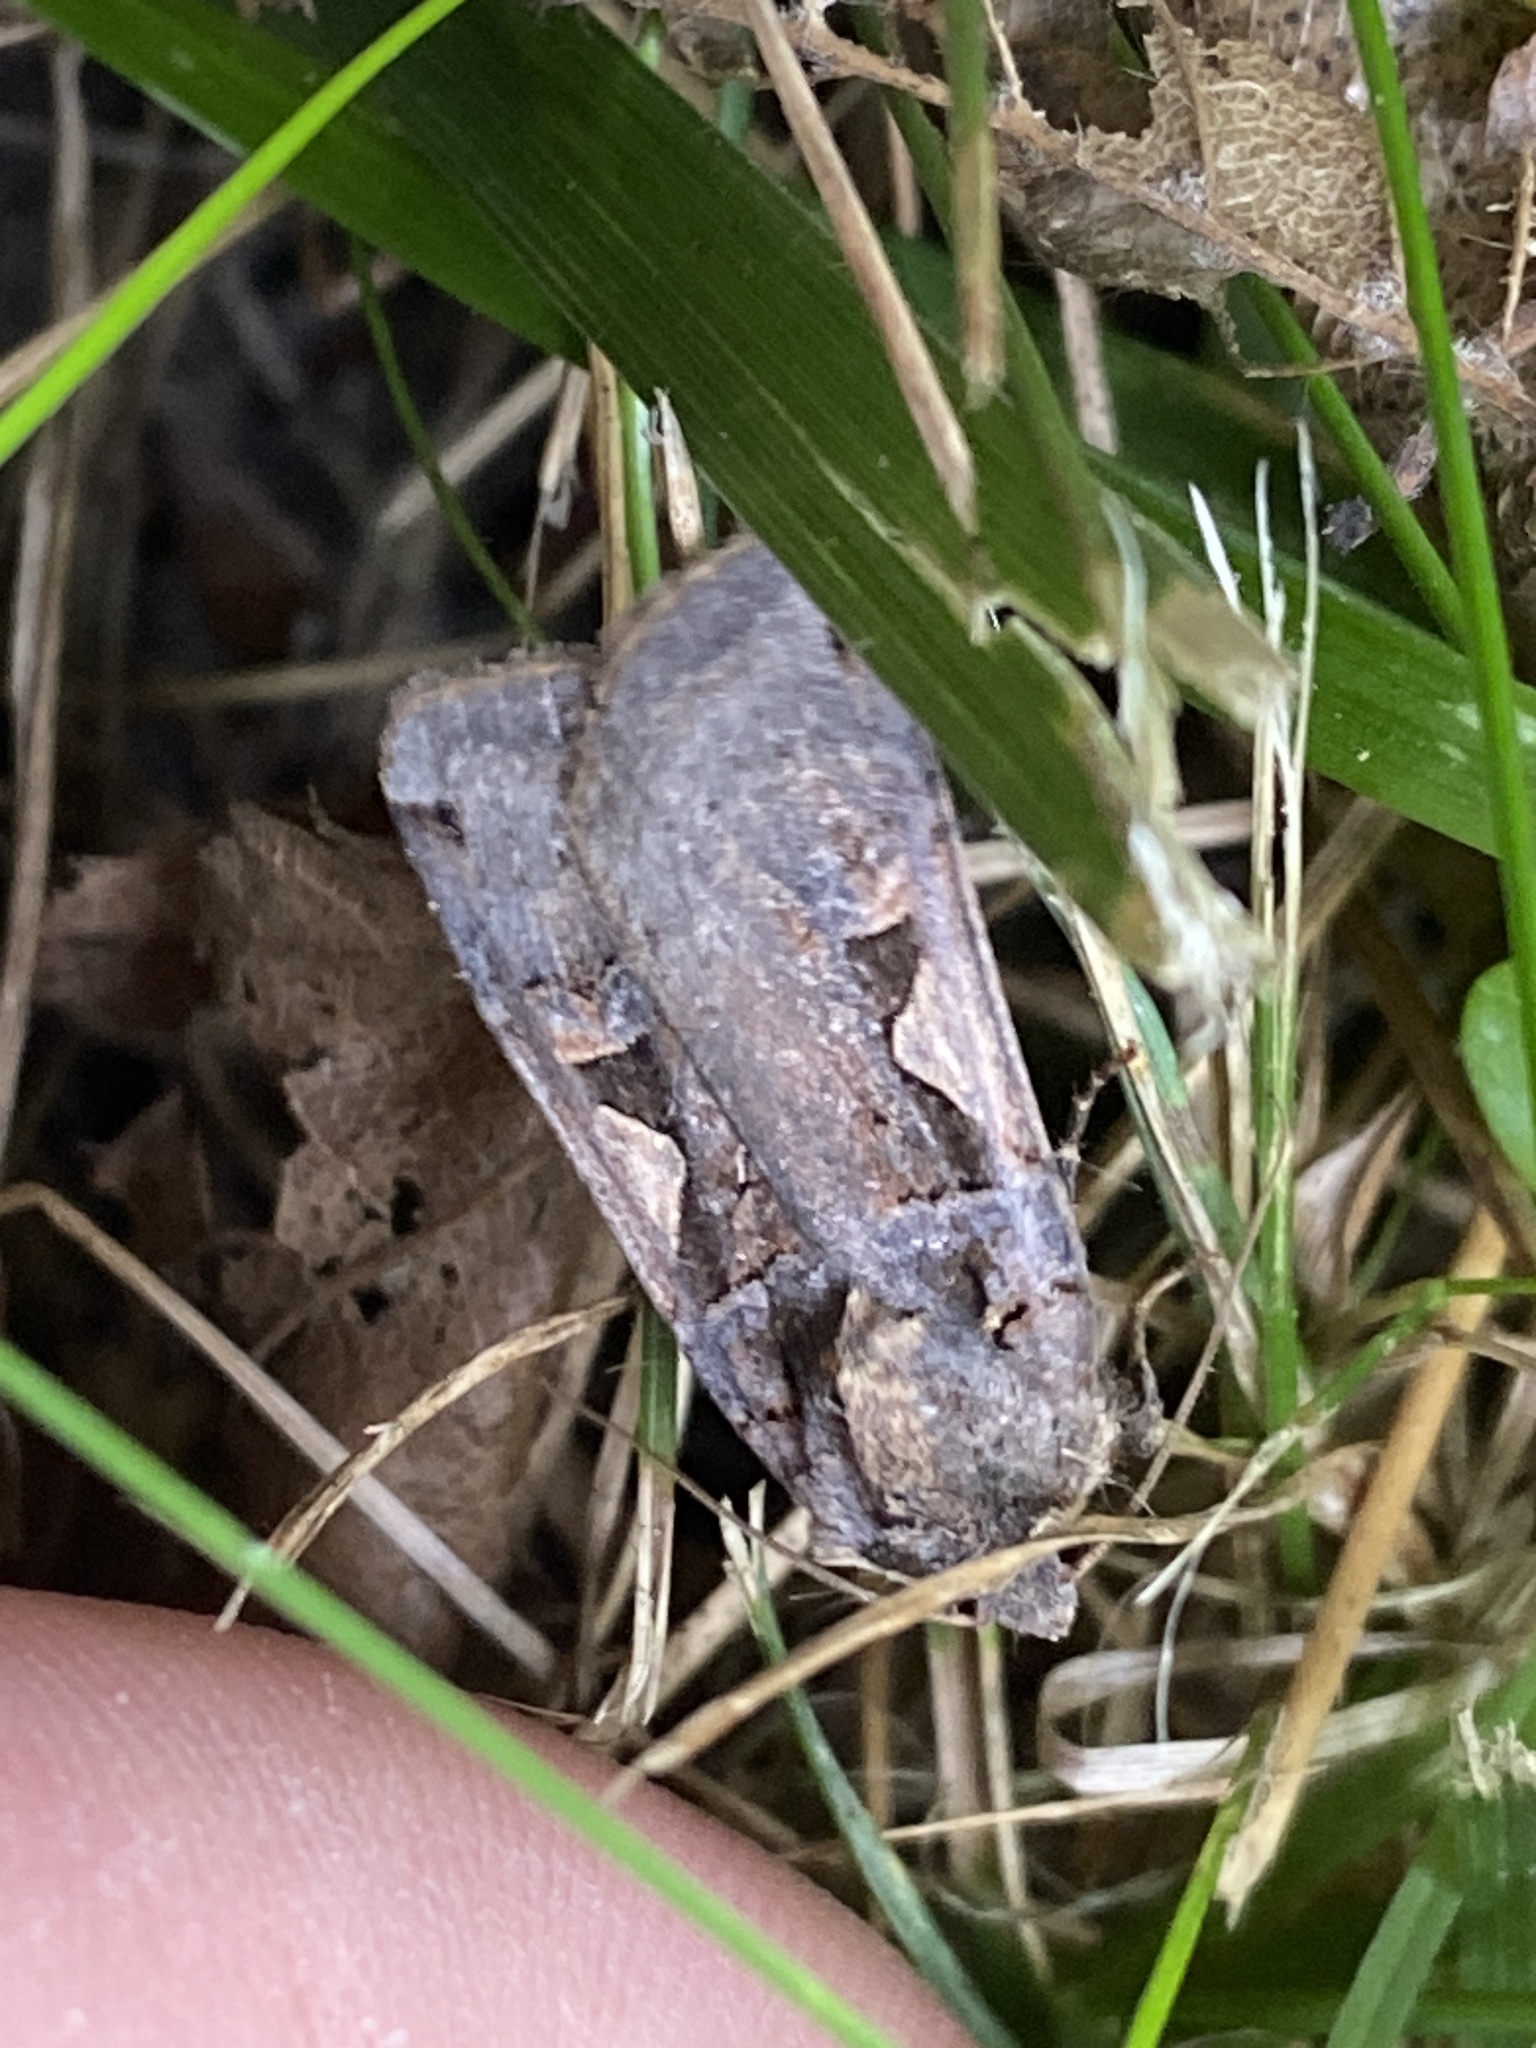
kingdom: Animalia
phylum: Arthropoda
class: Insecta
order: Lepidoptera
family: Noctuidae
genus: Xestia
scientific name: Xestia c-nigrum
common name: Setaceous hebrew character
